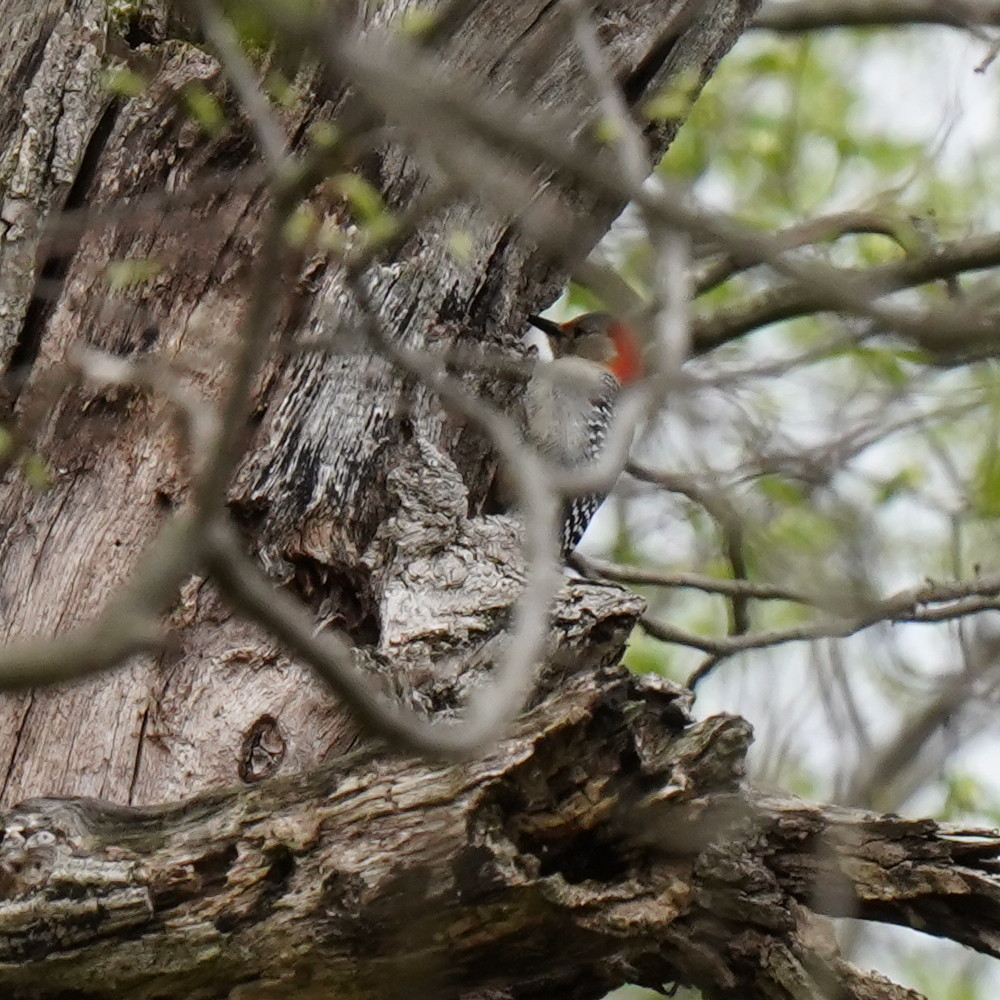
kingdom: Animalia
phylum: Chordata
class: Aves
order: Piciformes
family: Picidae
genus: Melanerpes
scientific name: Melanerpes carolinus
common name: Red-bellied woodpecker
